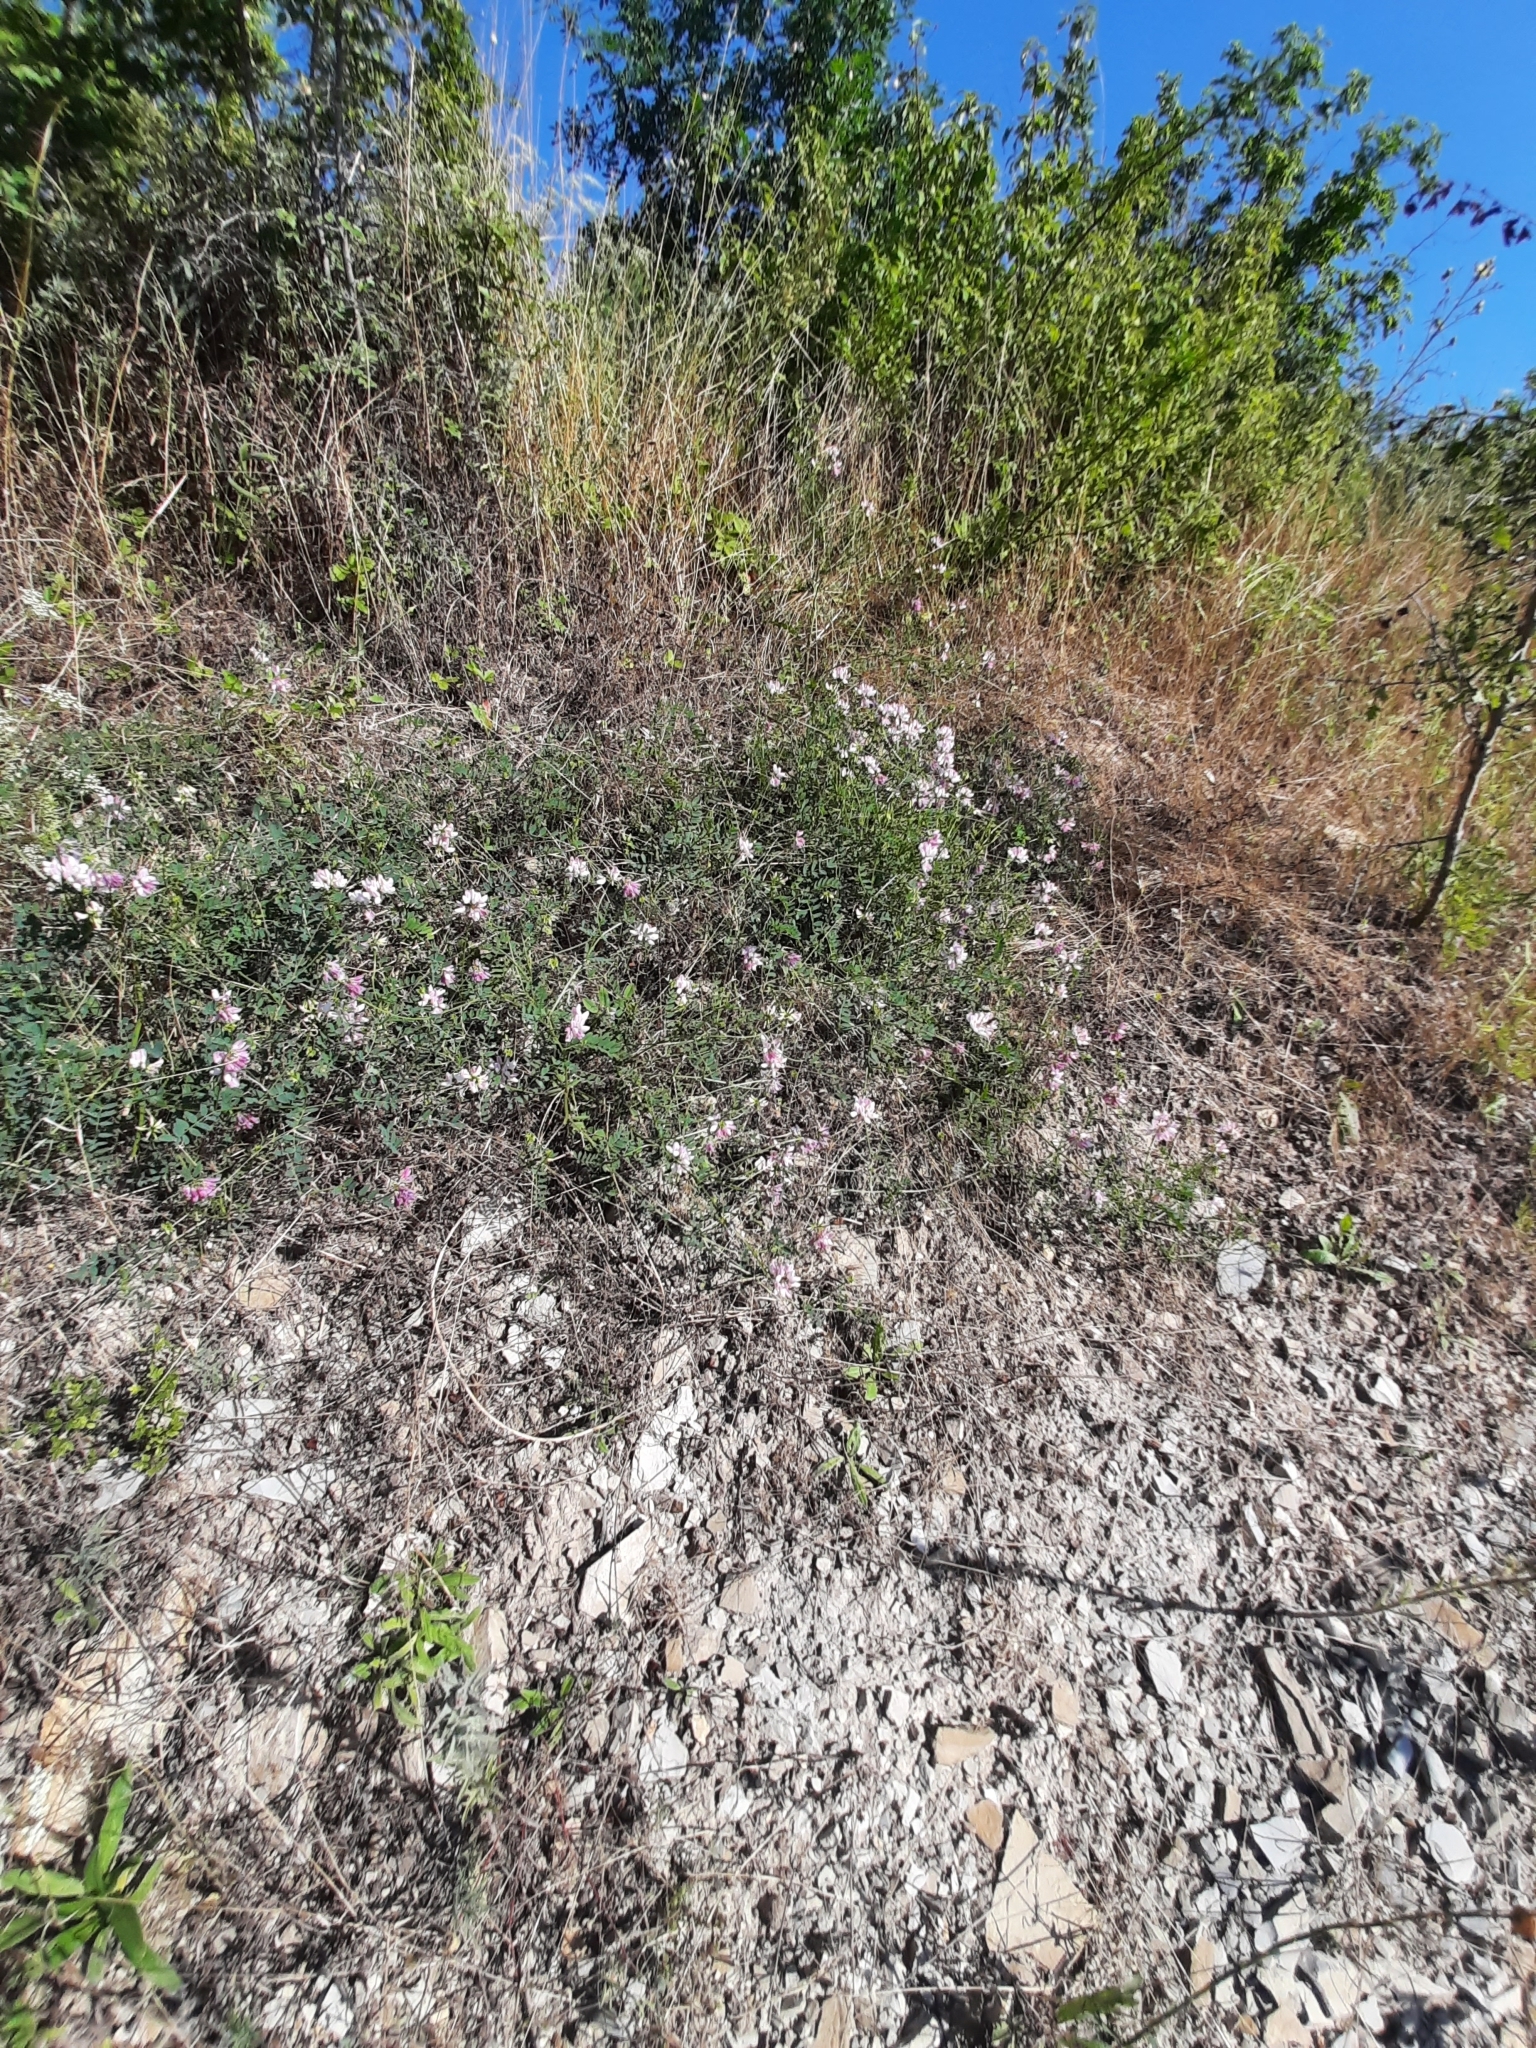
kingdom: Plantae
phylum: Tracheophyta
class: Magnoliopsida
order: Fabales
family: Fabaceae
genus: Coronilla
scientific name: Coronilla varia
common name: Crownvetch
